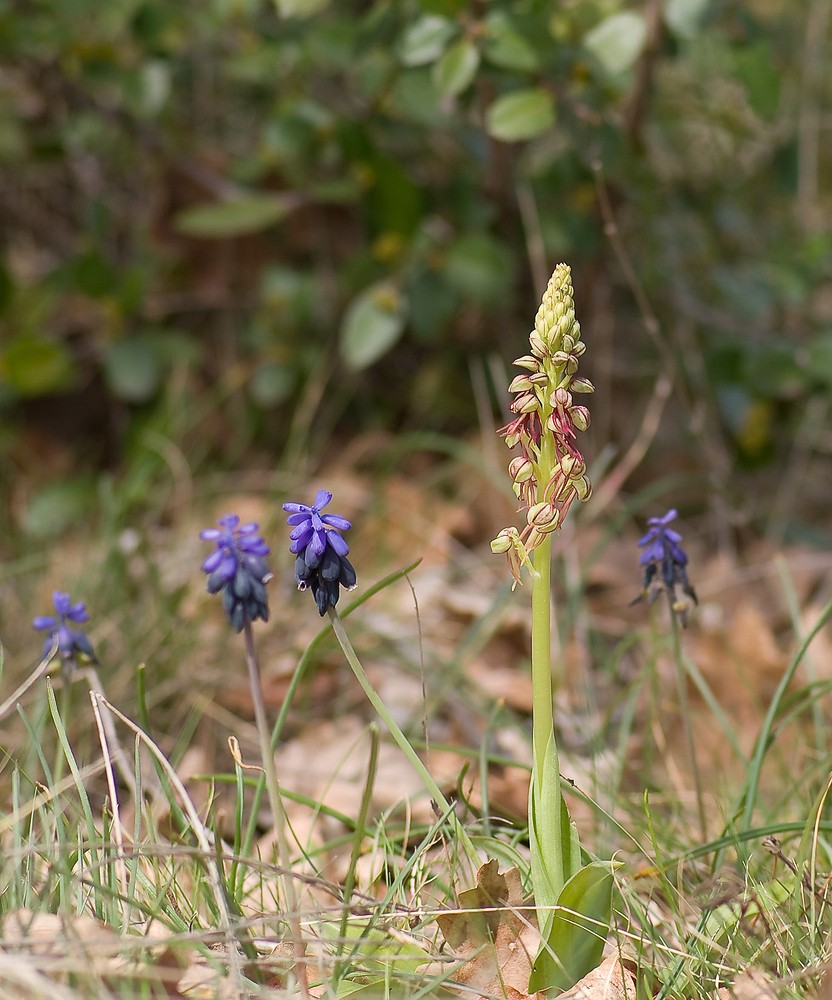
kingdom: Plantae
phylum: Tracheophyta
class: Liliopsida
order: Asparagales
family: Orchidaceae
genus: Orchis
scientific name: Orchis anthropophora
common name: Man orchid
